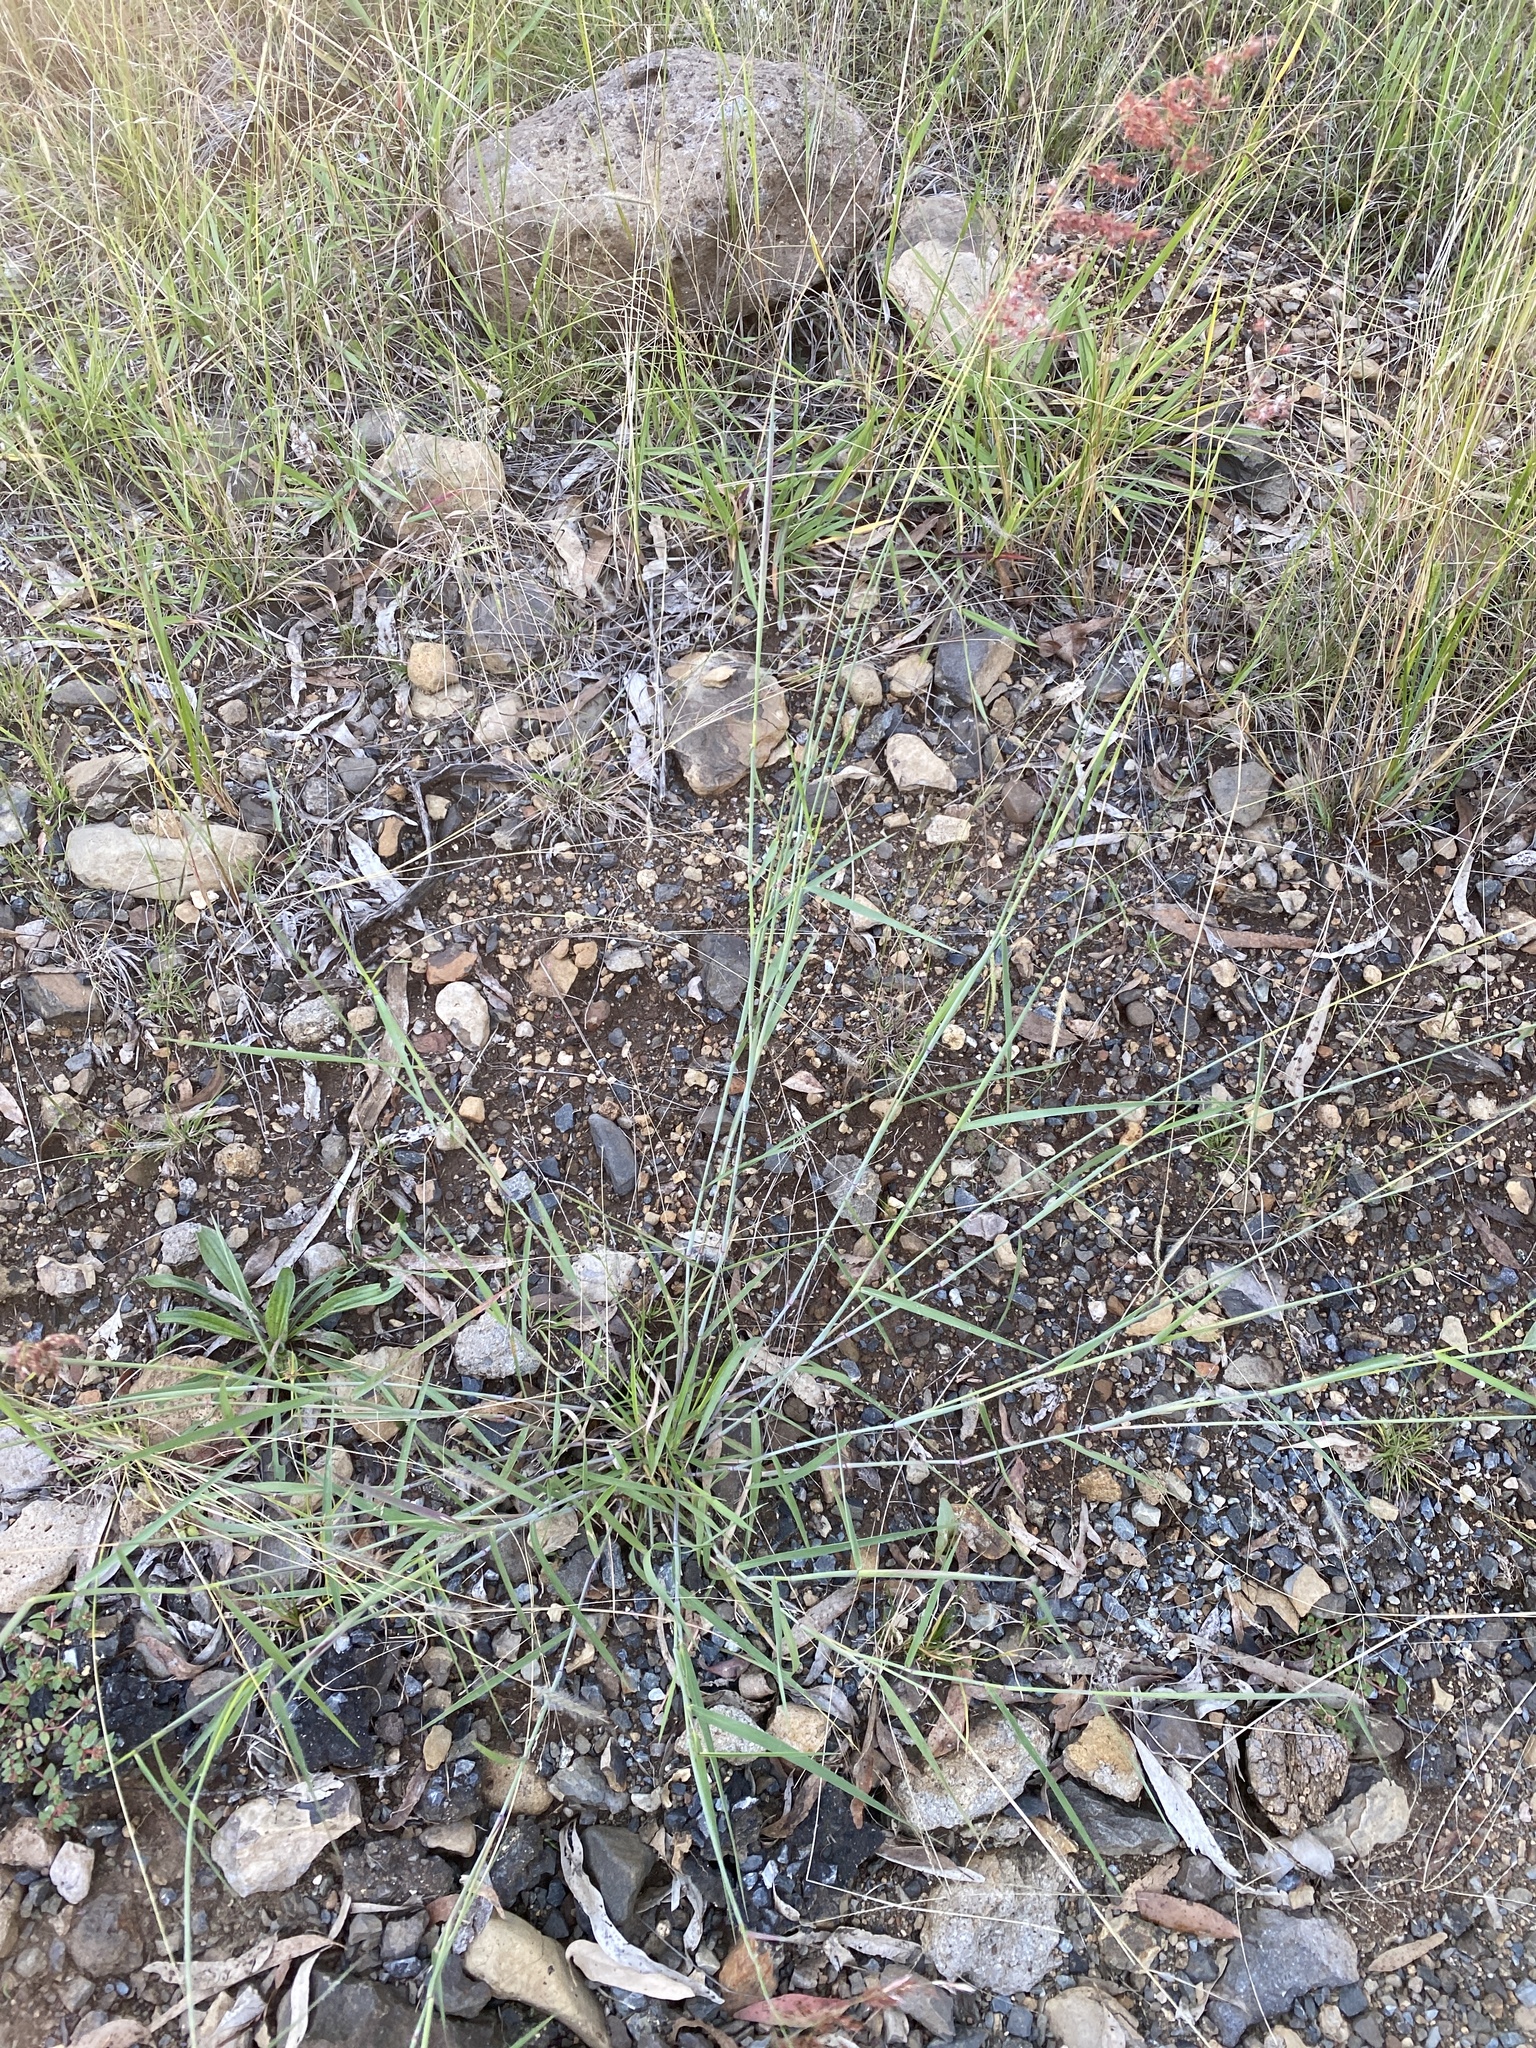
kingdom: Plantae
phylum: Tracheophyta
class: Liliopsida
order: Poales
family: Poaceae
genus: Melinis
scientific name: Melinis repens
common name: Rose natal grass
